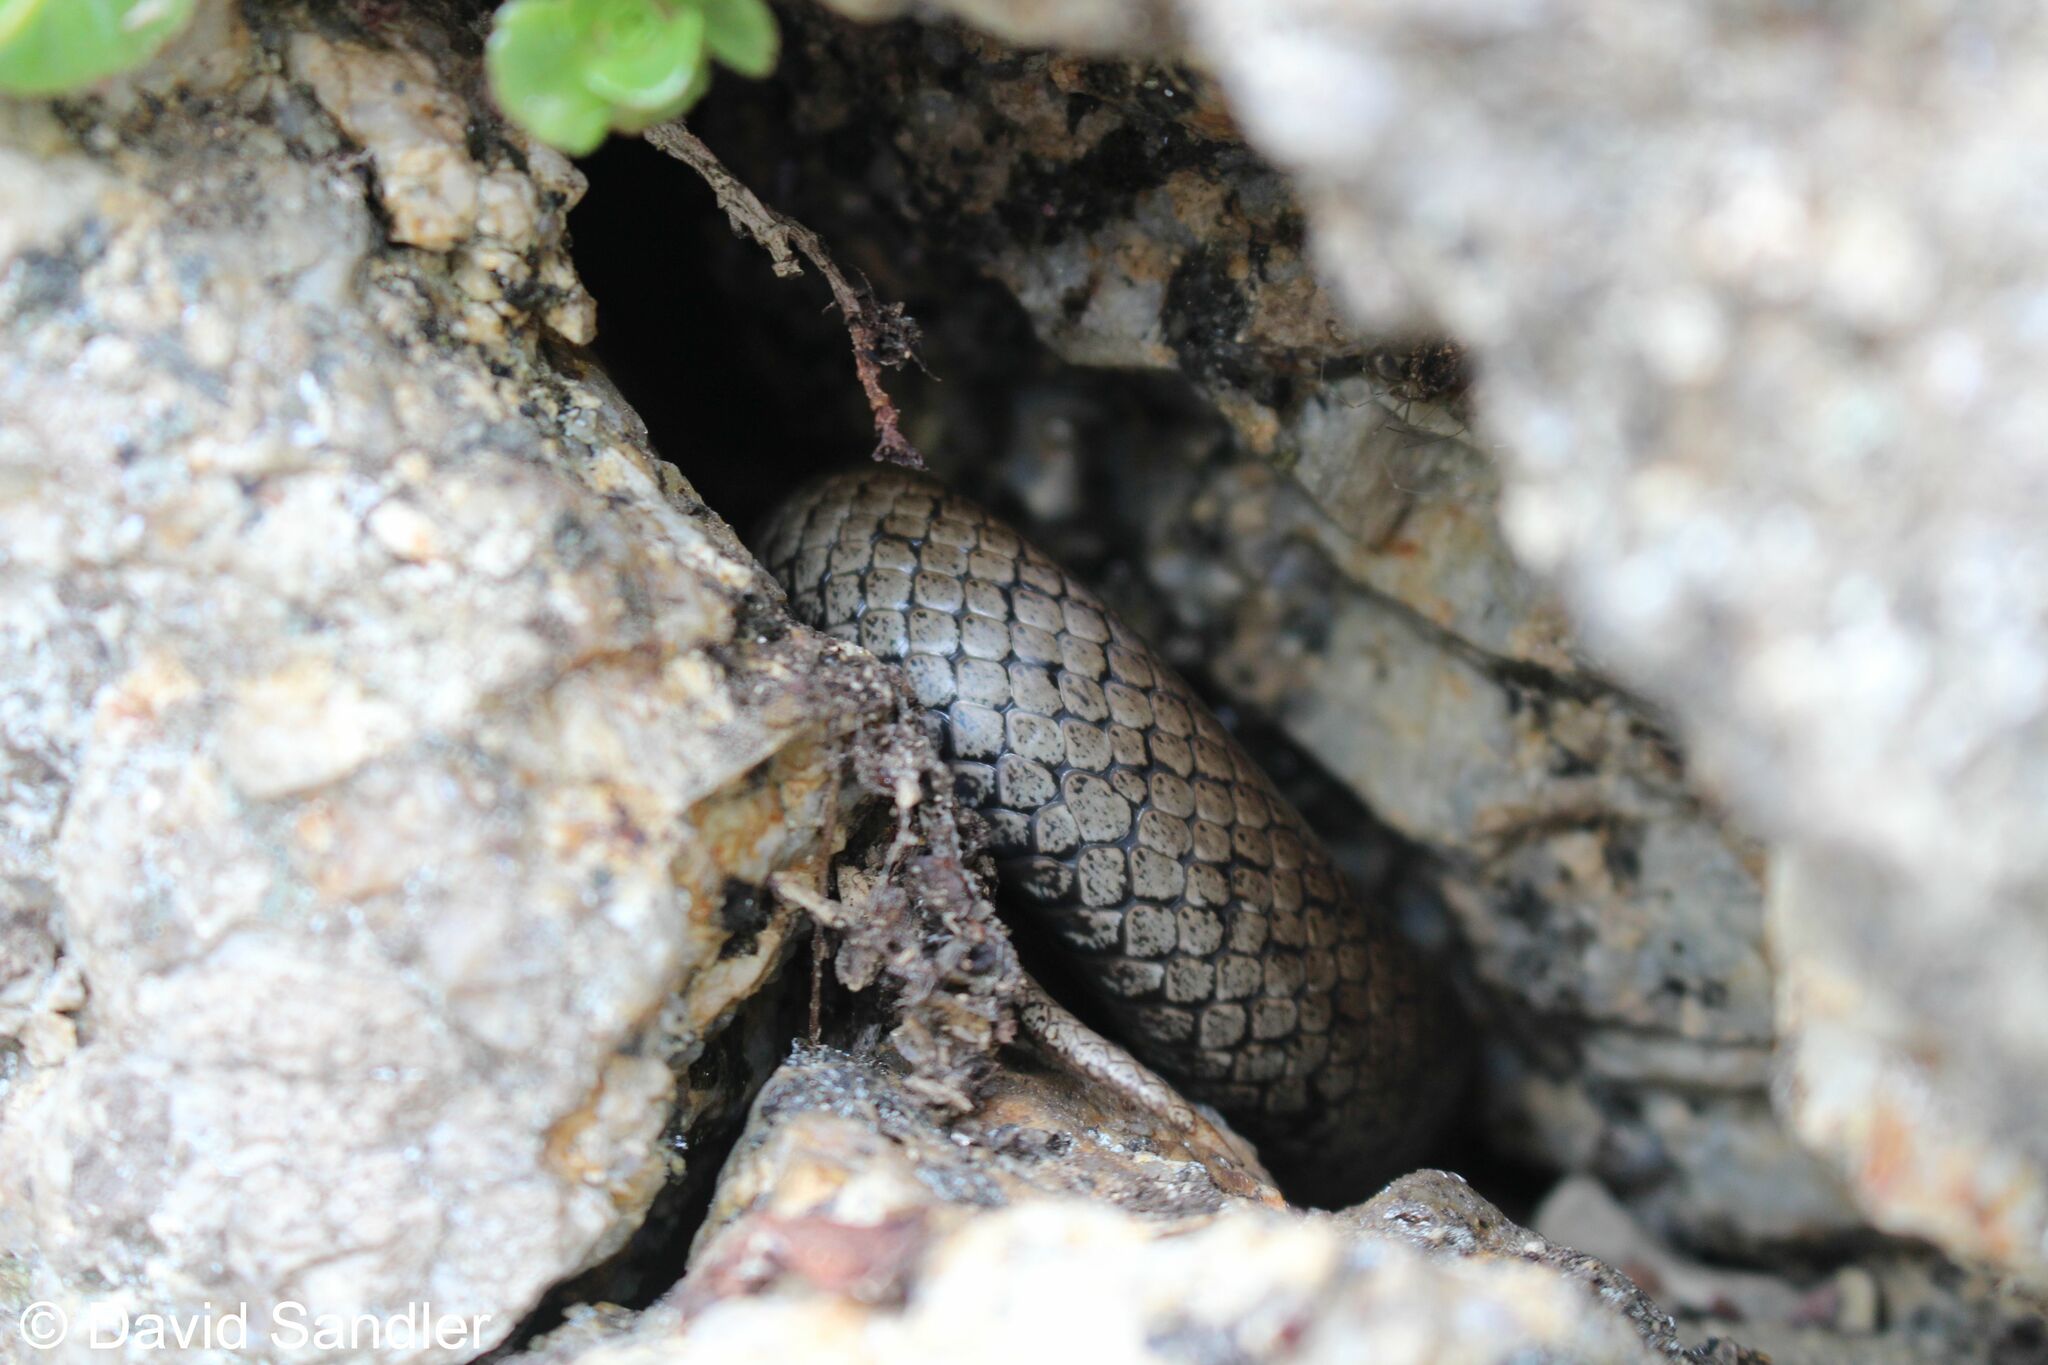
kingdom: Animalia
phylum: Chordata
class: Squamata
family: Colubridae
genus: Coronella
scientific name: Coronella austriaca
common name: Smooth snake
